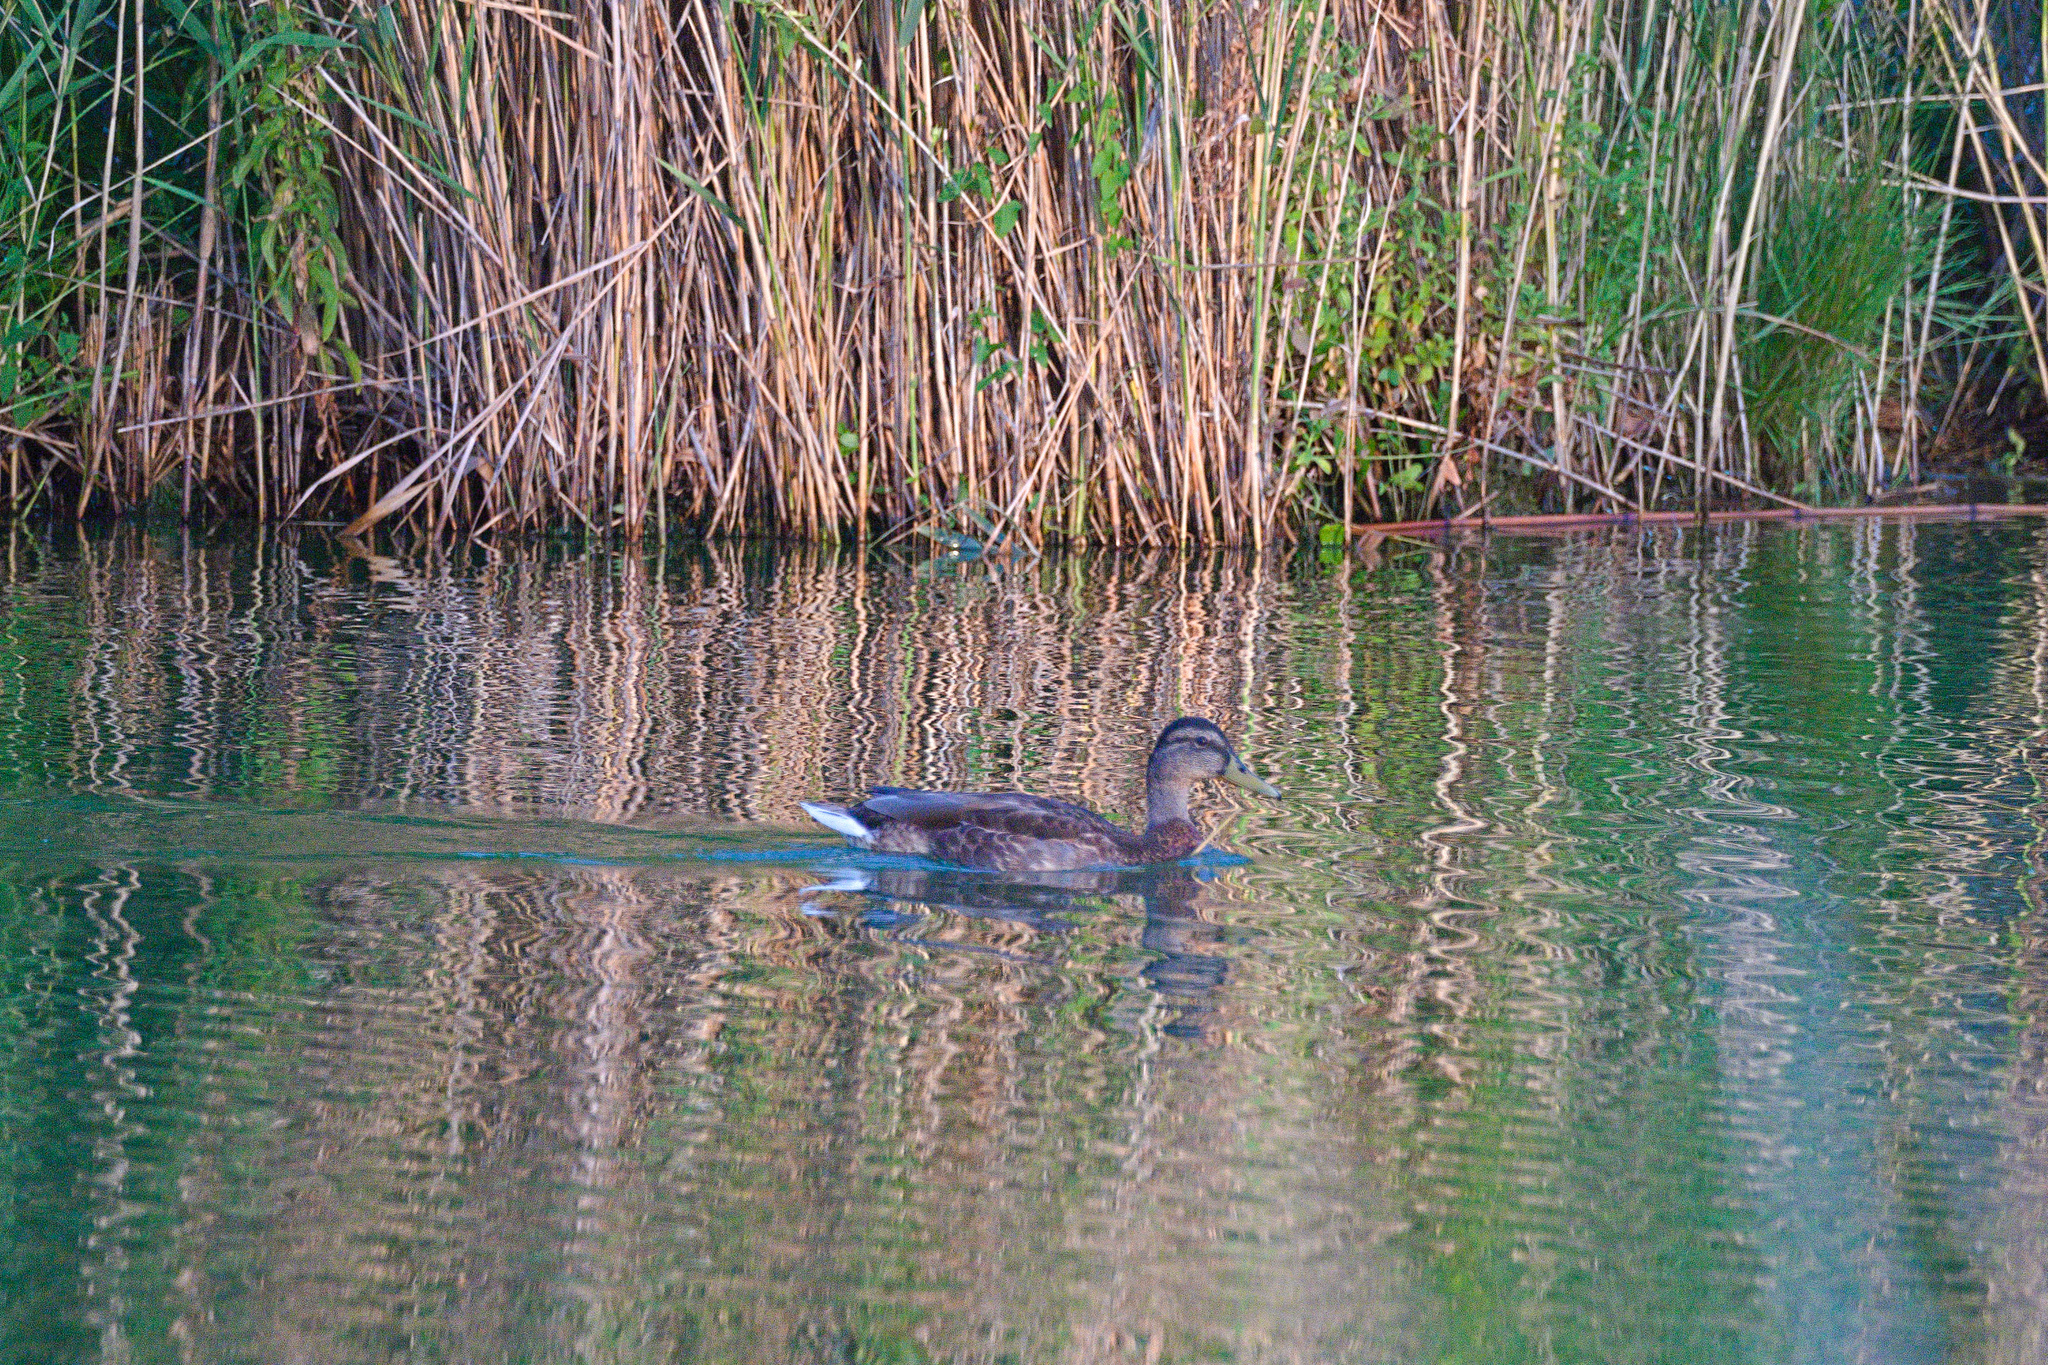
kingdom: Animalia
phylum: Chordata
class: Aves
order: Anseriformes
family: Anatidae
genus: Anas
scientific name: Anas platyrhynchos
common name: Mallard
